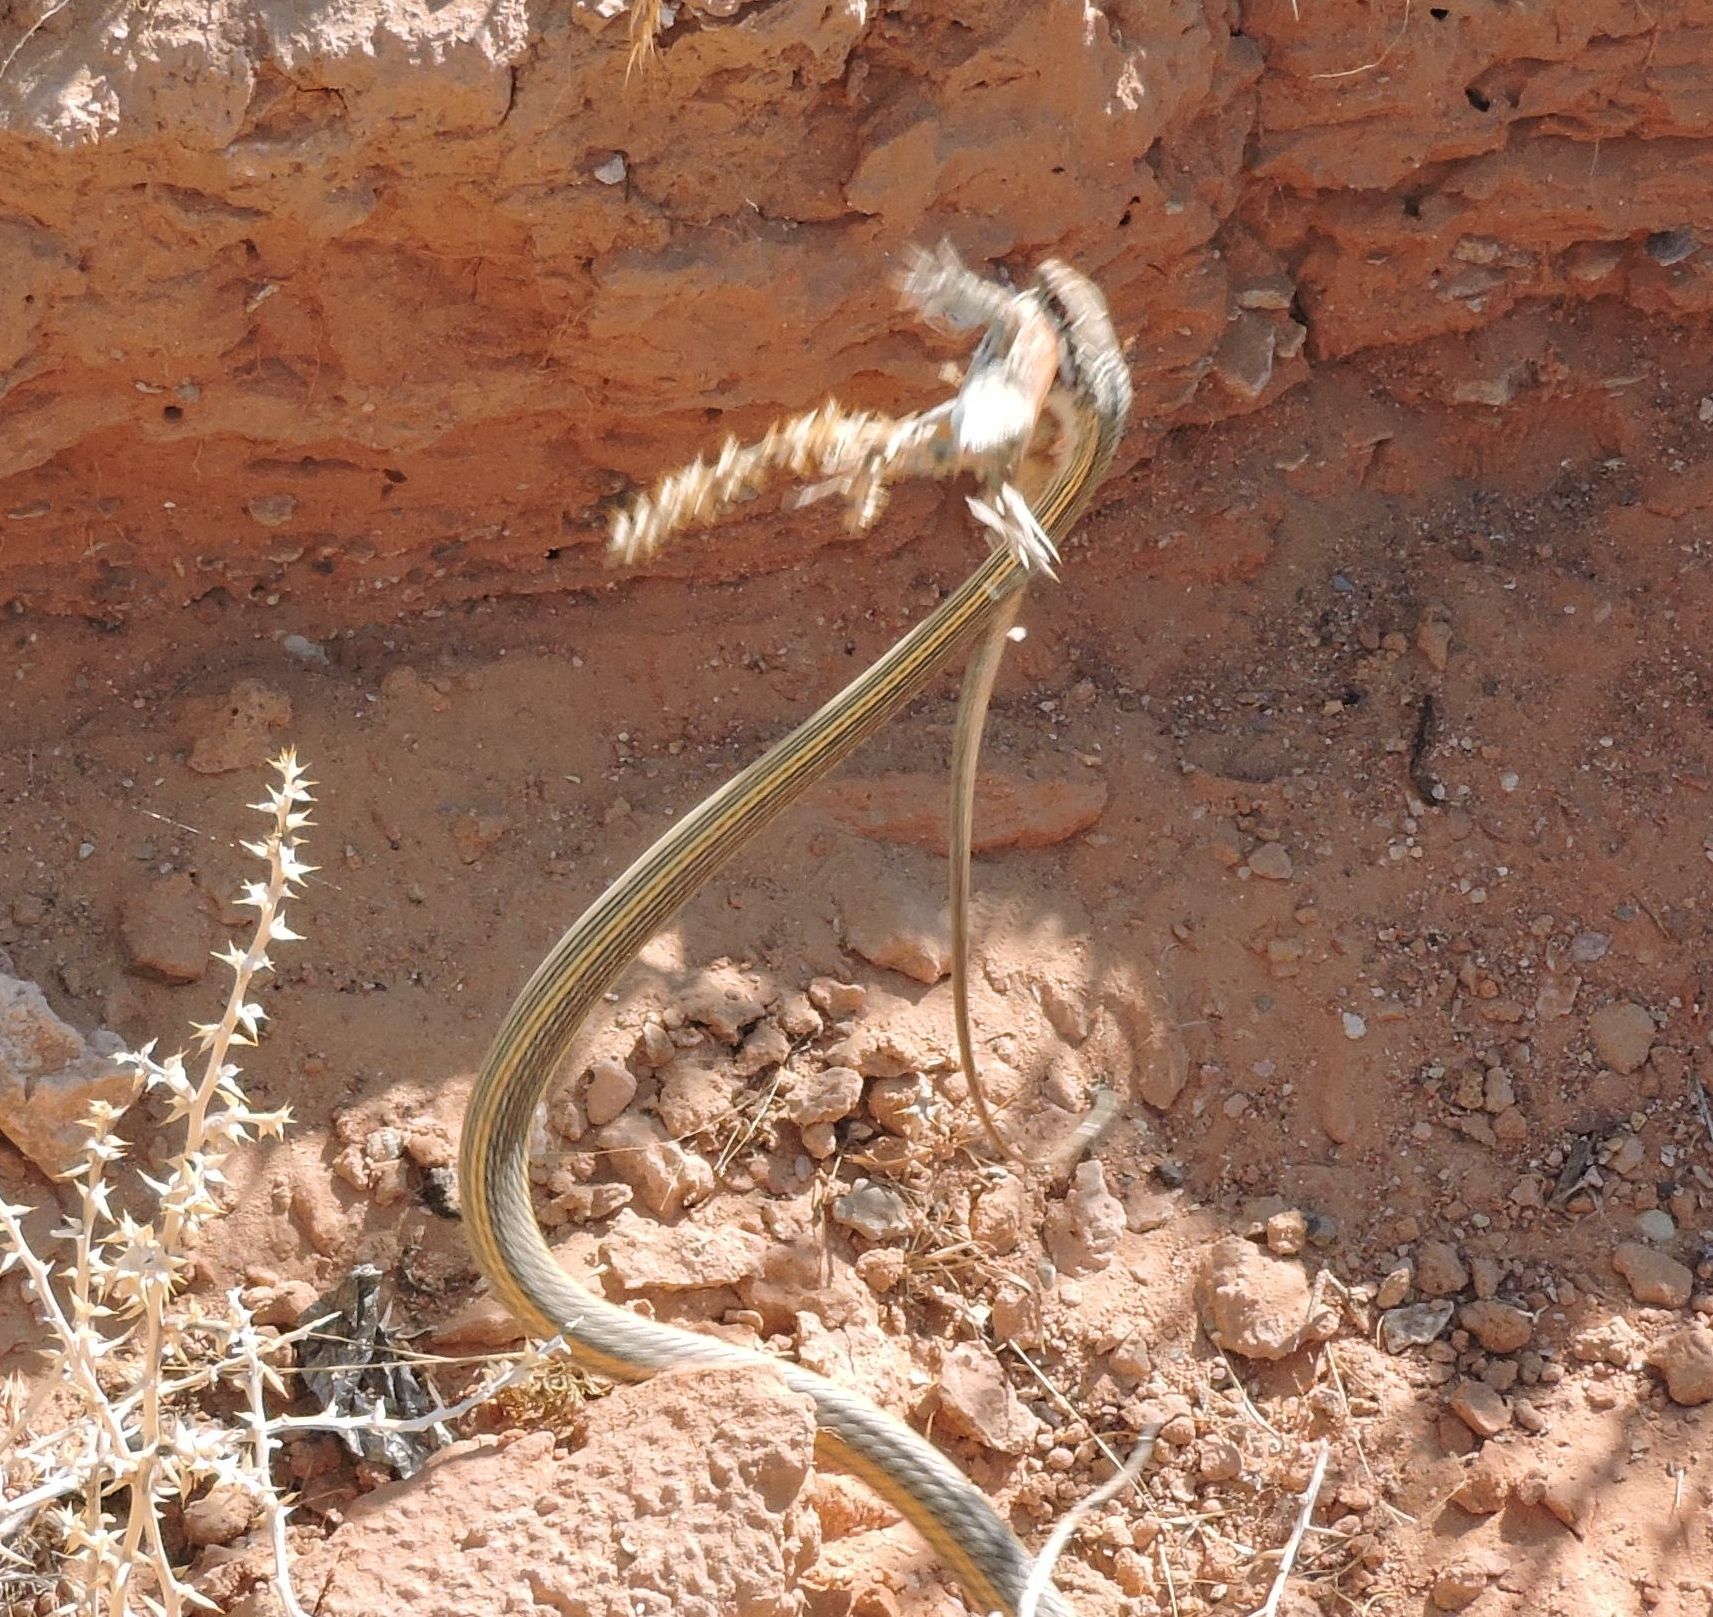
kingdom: Animalia
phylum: Chordata
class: Squamata
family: Colubridae
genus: Masticophis
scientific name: Masticophis taeniatus
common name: Striped whipsnake
